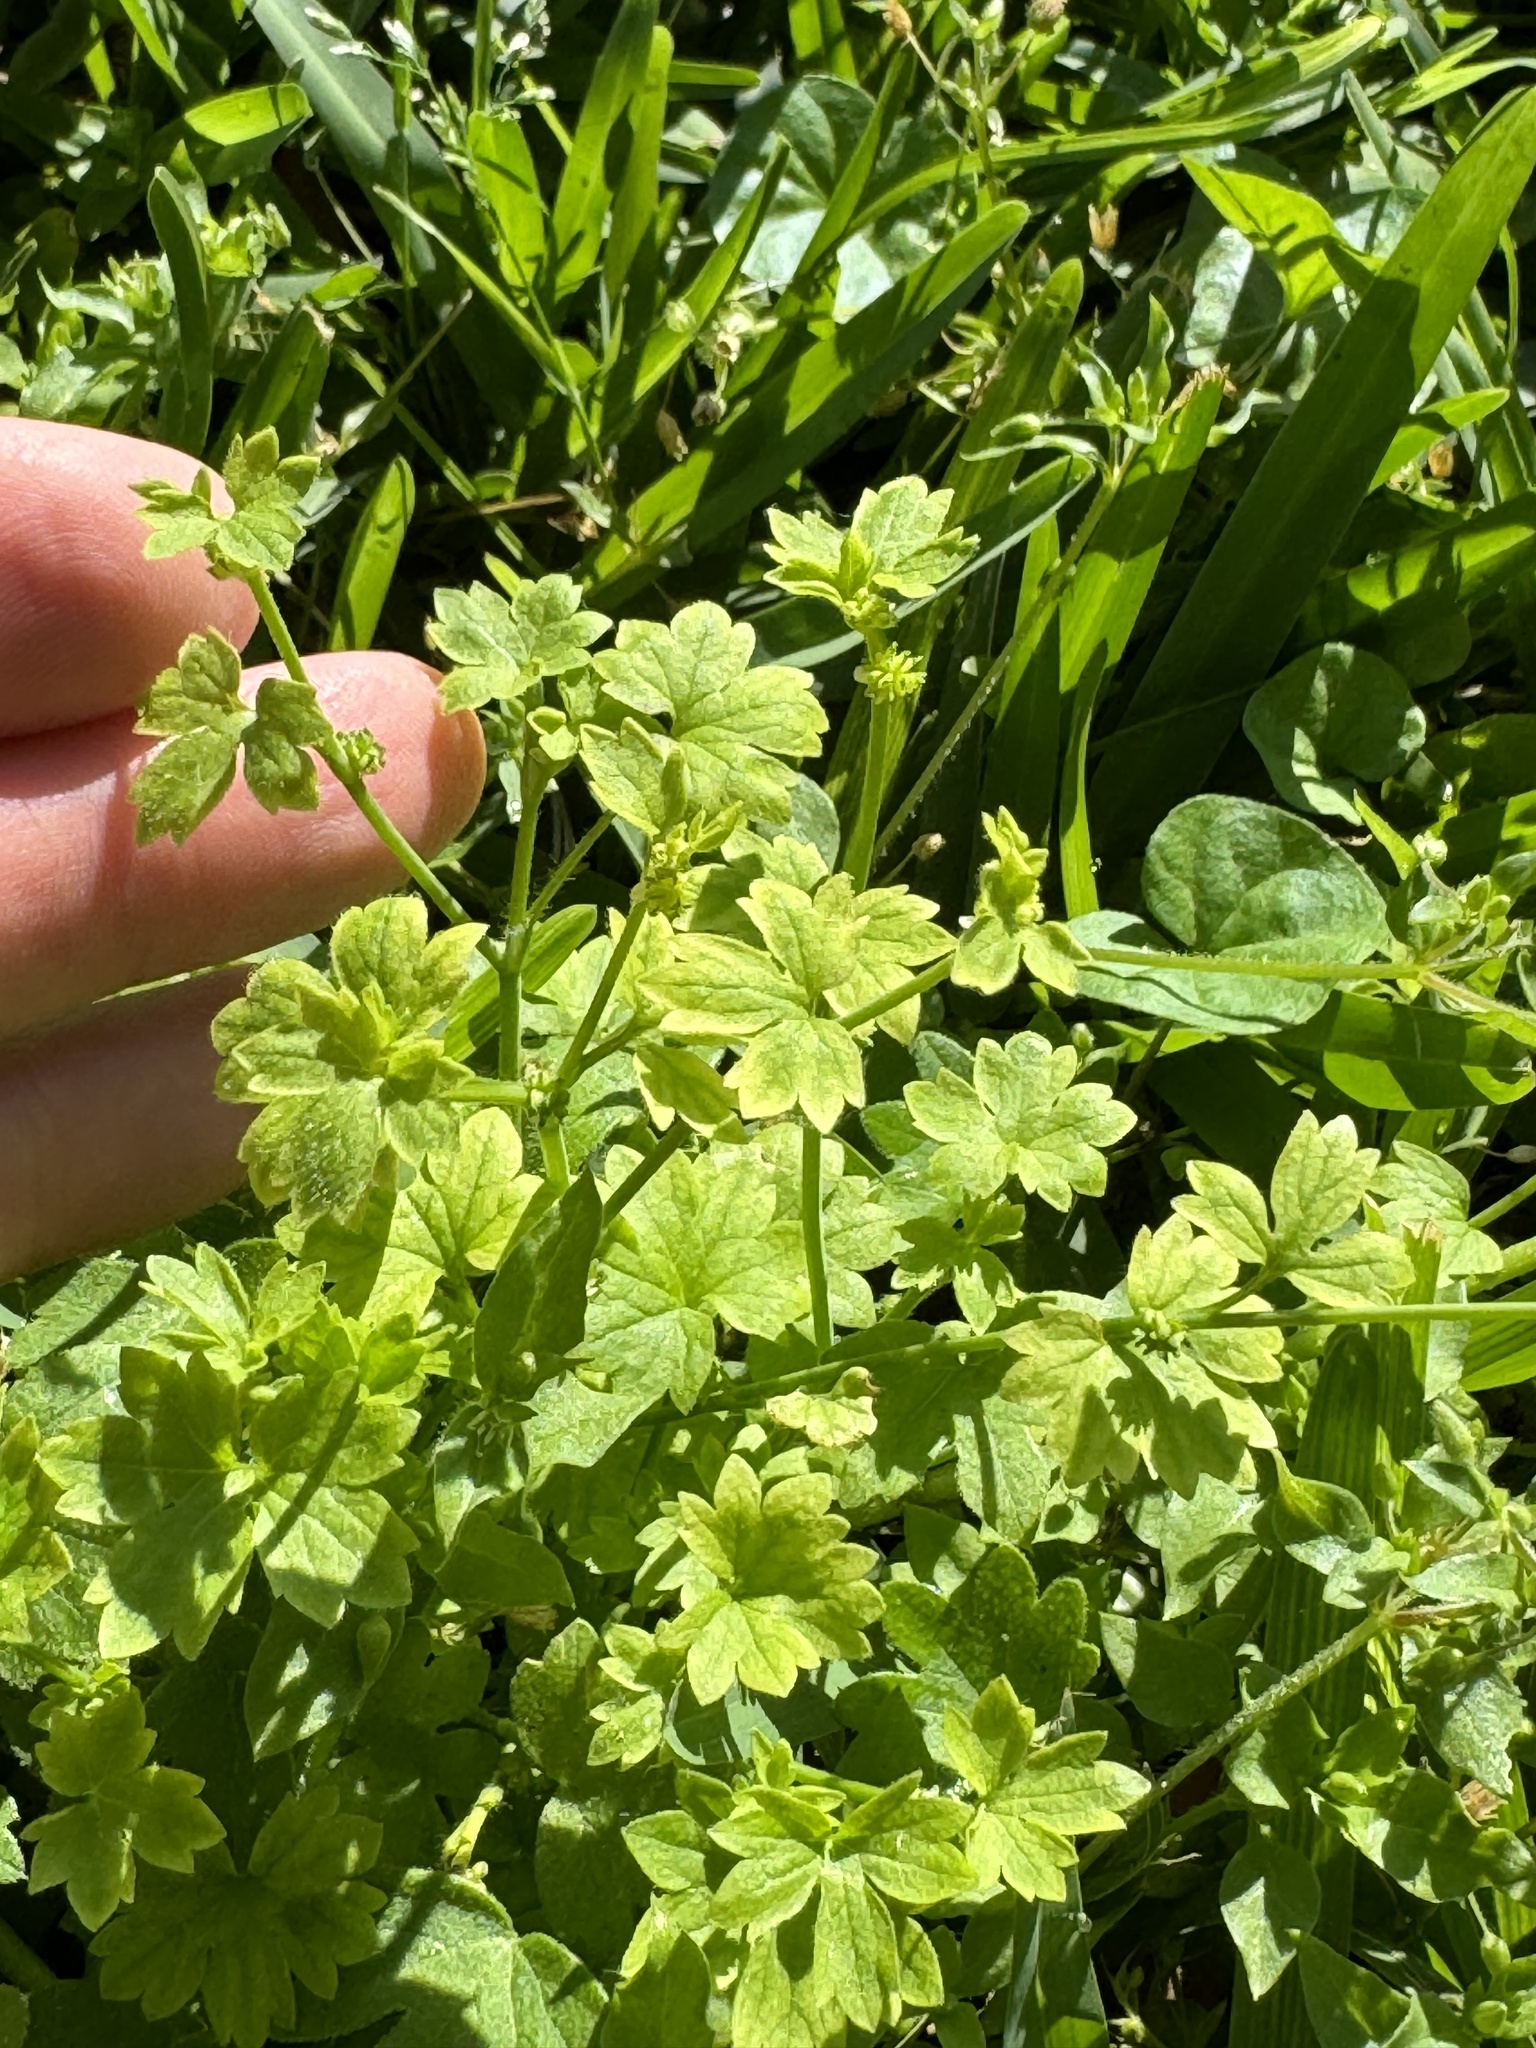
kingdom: Plantae
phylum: Tracheophyta
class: Magnoliopsida
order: Ranunculales
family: Ranunculaceae
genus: Ranunculus
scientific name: Ranunculus platensis
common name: Prairie buttercup
